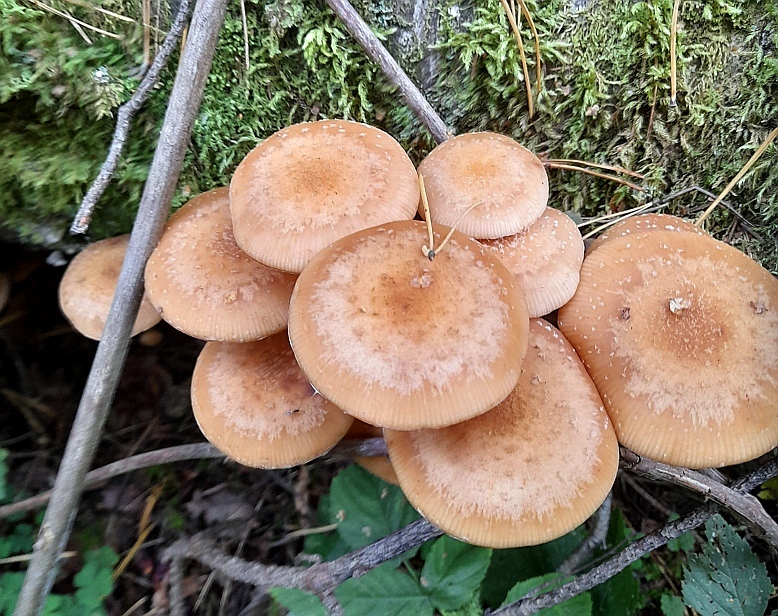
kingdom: Fungi
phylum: Basidiomycota
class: Agaricomycetes
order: Agaricales
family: Physalacriaceae
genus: Armillaria
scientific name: Armillaria
